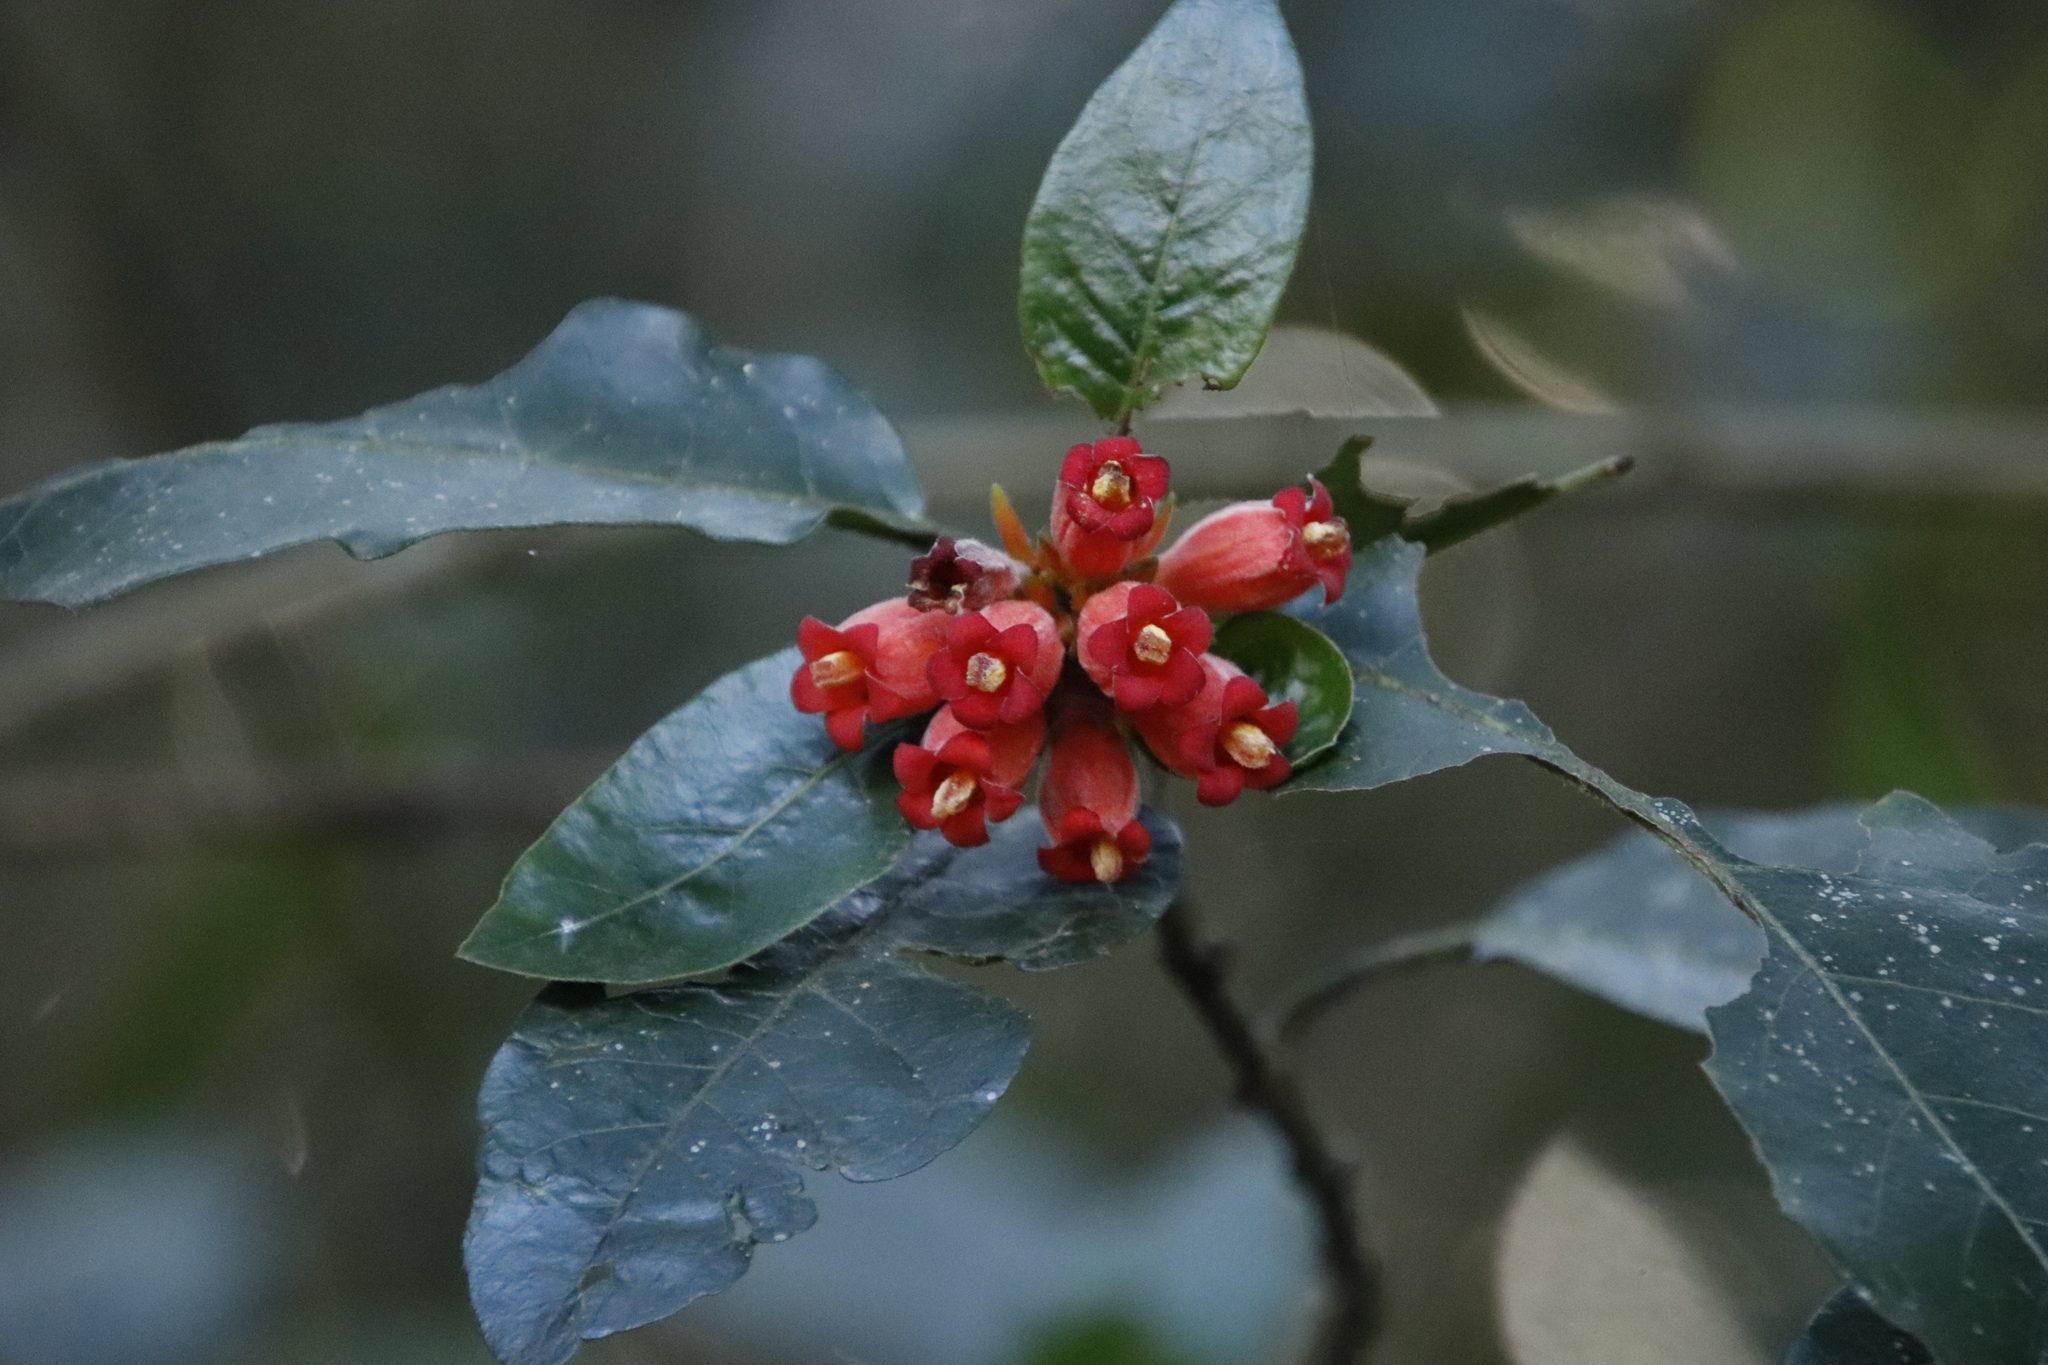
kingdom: Plantae
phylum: Tracheophyta
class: Magnoliopsida
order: Gentianales
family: Rubiaceae
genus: Burchellia
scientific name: Burchellia bubalina
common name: Wild pomegranate
